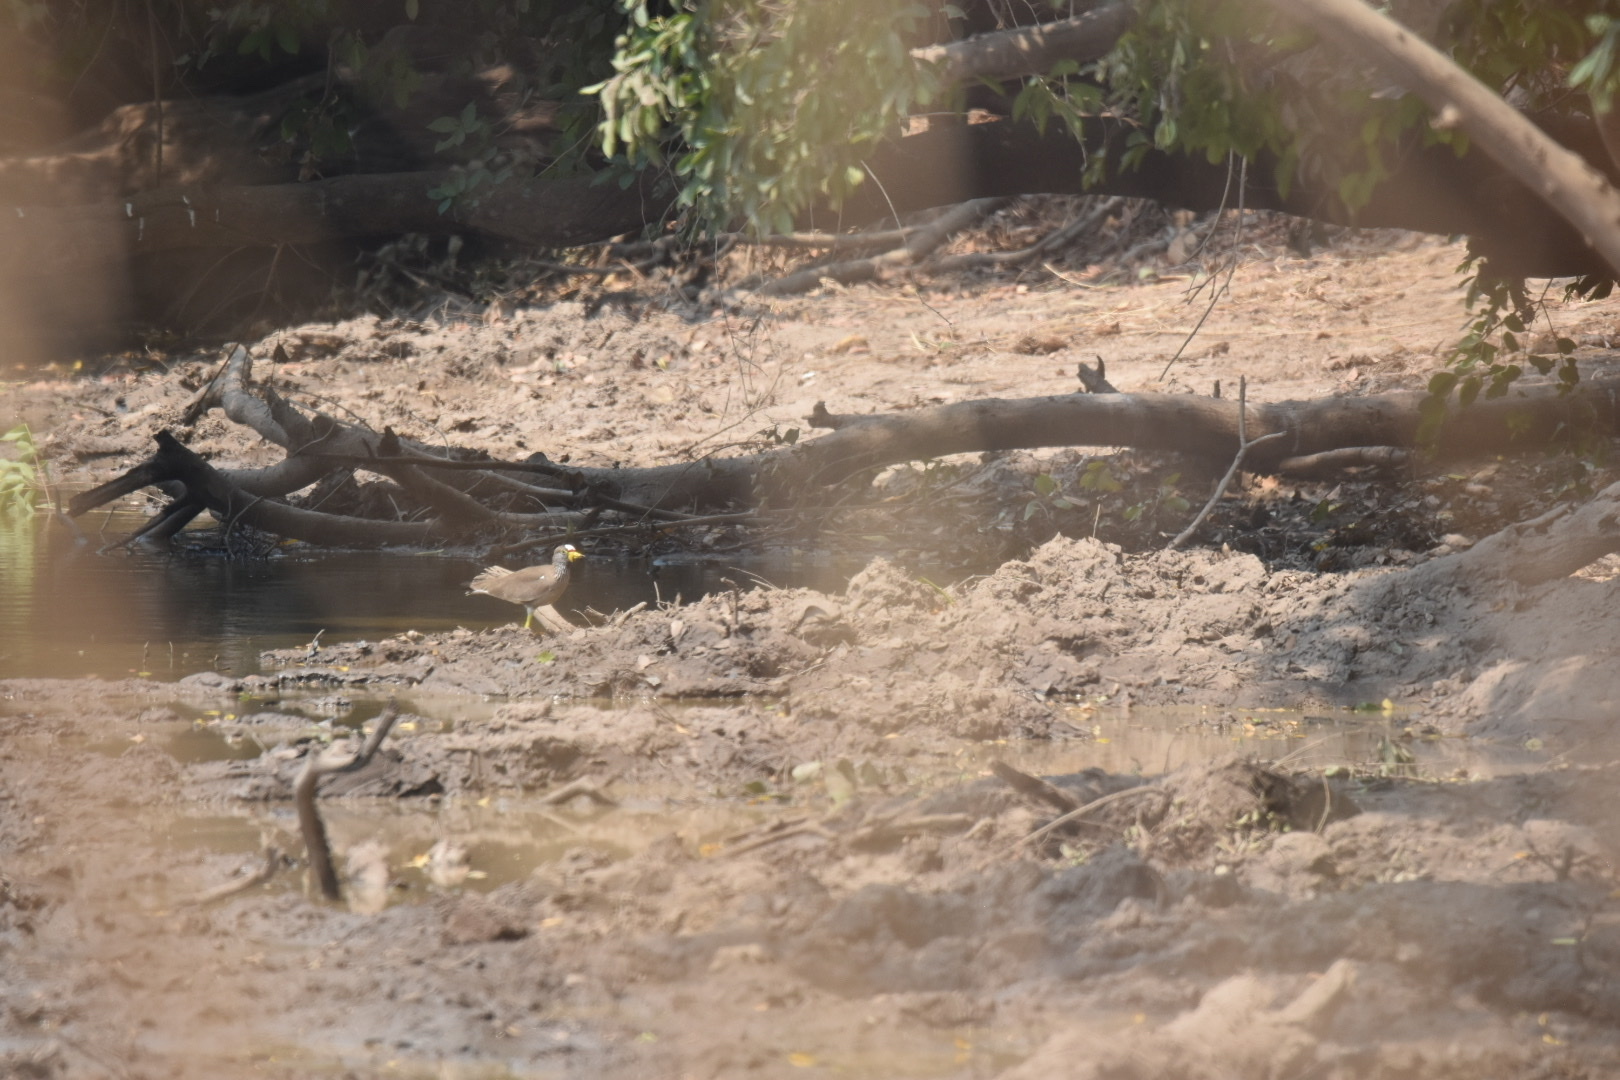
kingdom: Animalia
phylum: Chordata
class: Aves
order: Charadriiformes
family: Charadriidae
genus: Vanellus
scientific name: Vanellus senegallus
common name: African wattled lapwing
